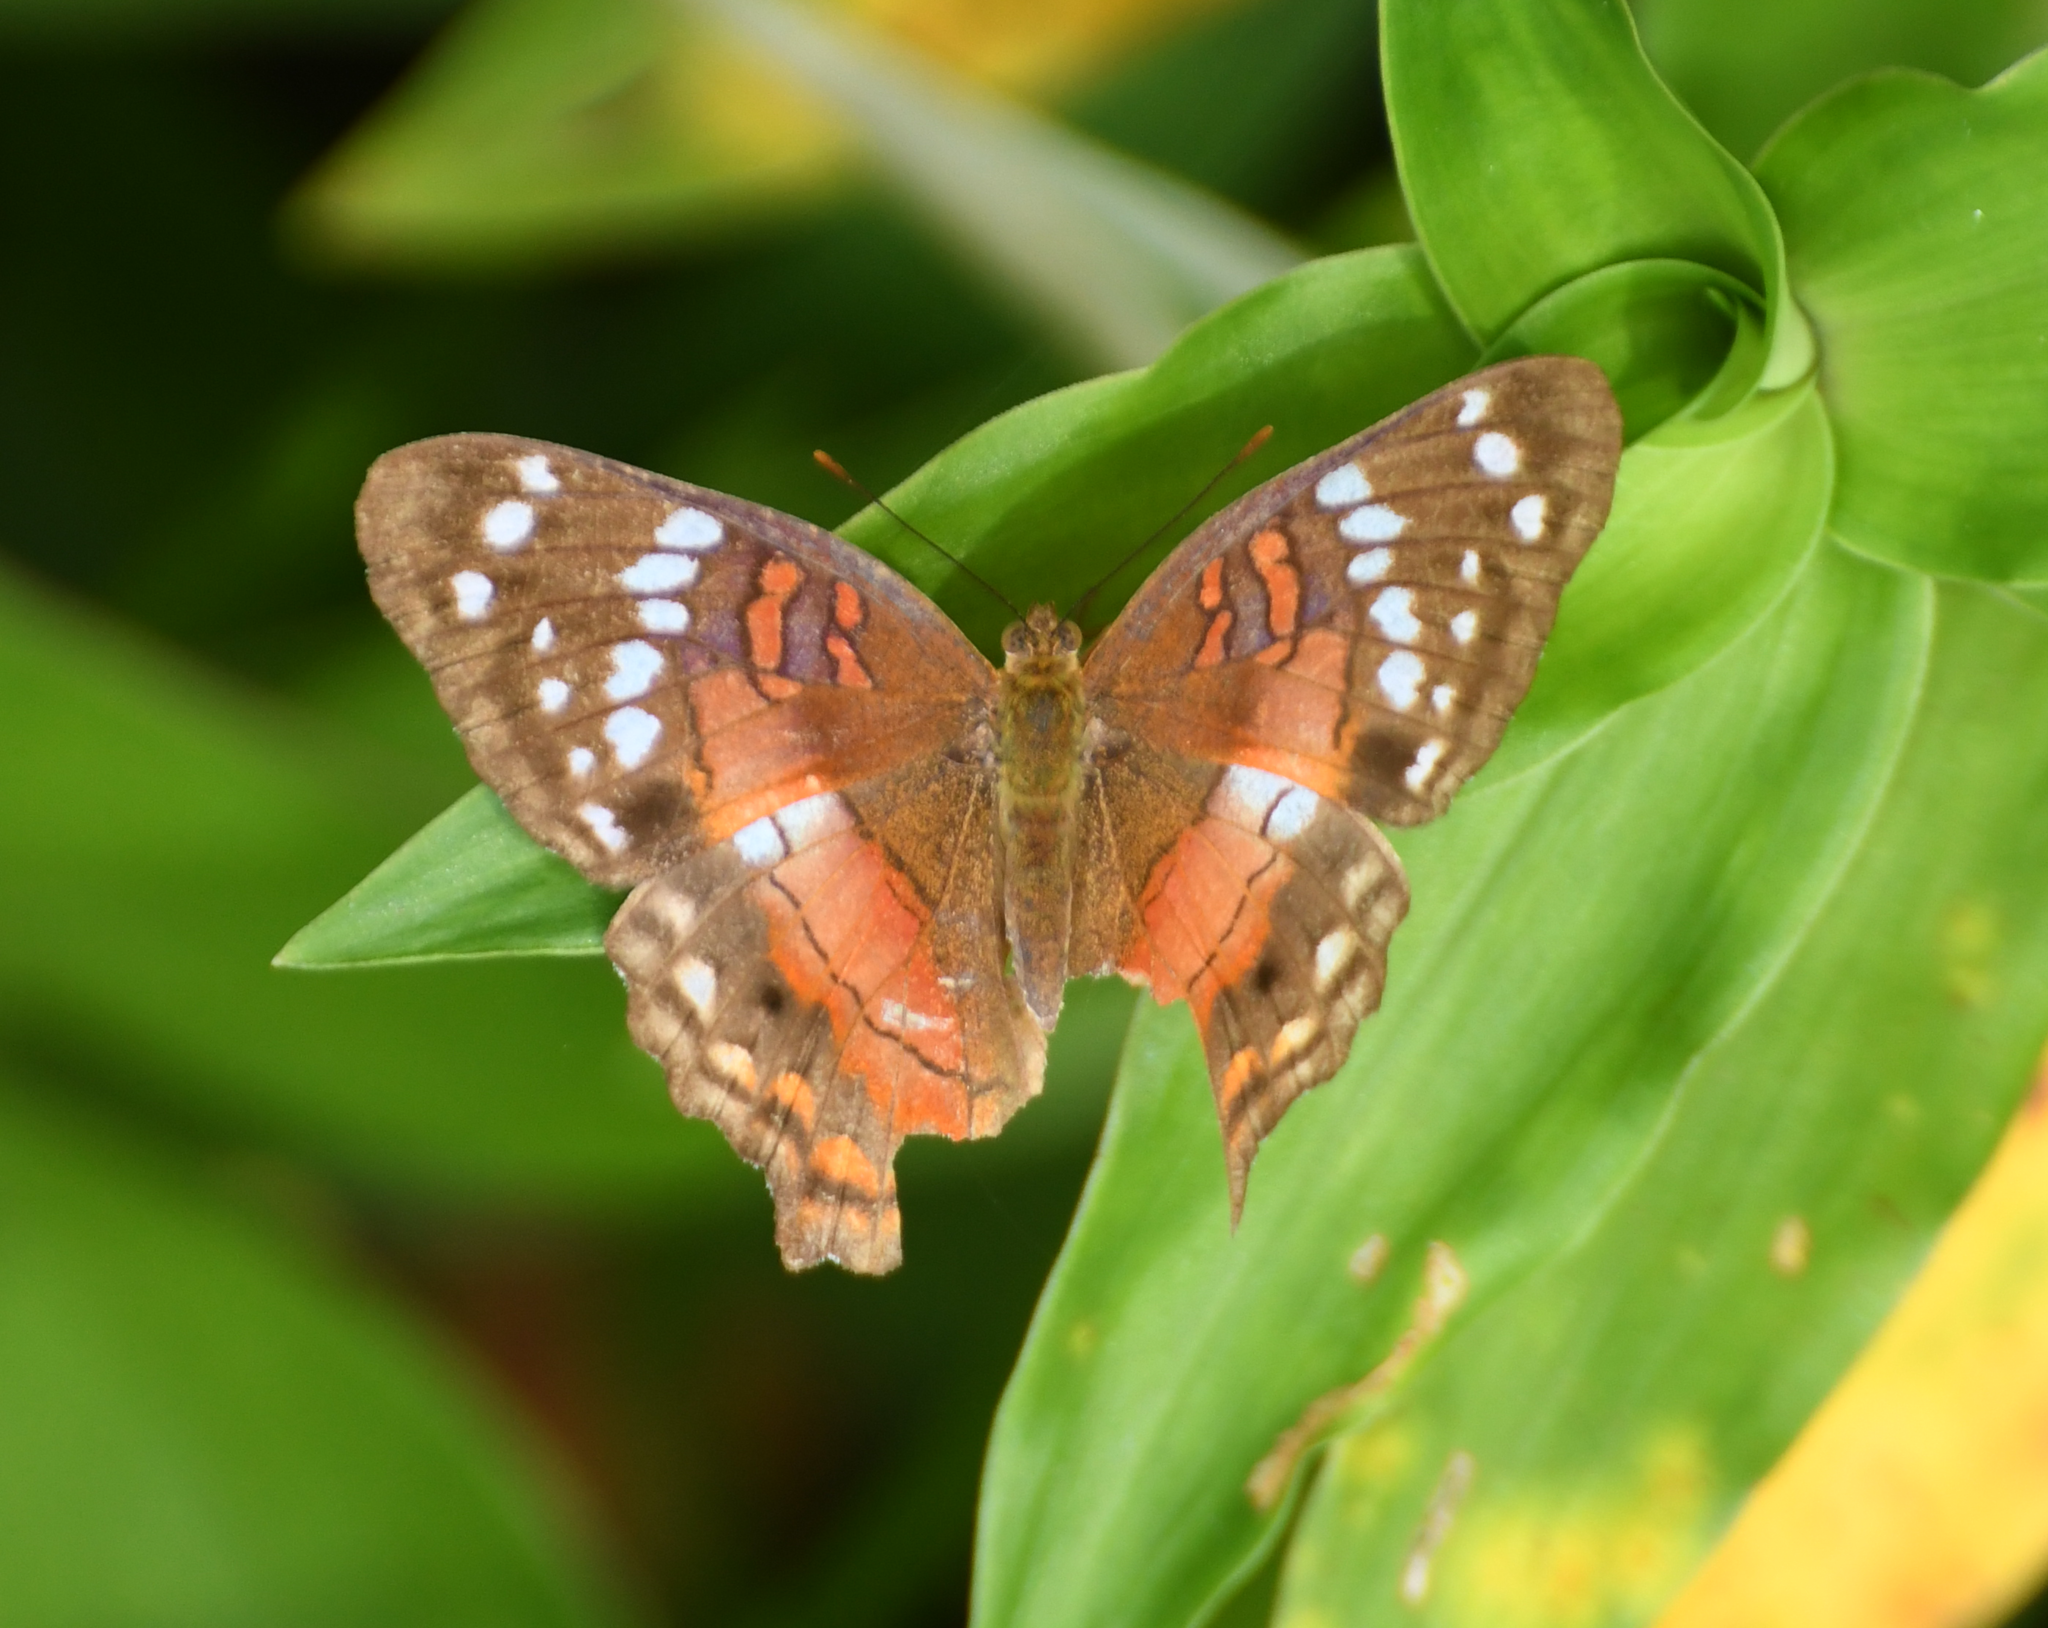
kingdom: Animalia
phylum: Arthropoda
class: Insecta
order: Lepidoptera
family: Nymphalidae
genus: Anartia
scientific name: Anartia amathea
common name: Red peacock
